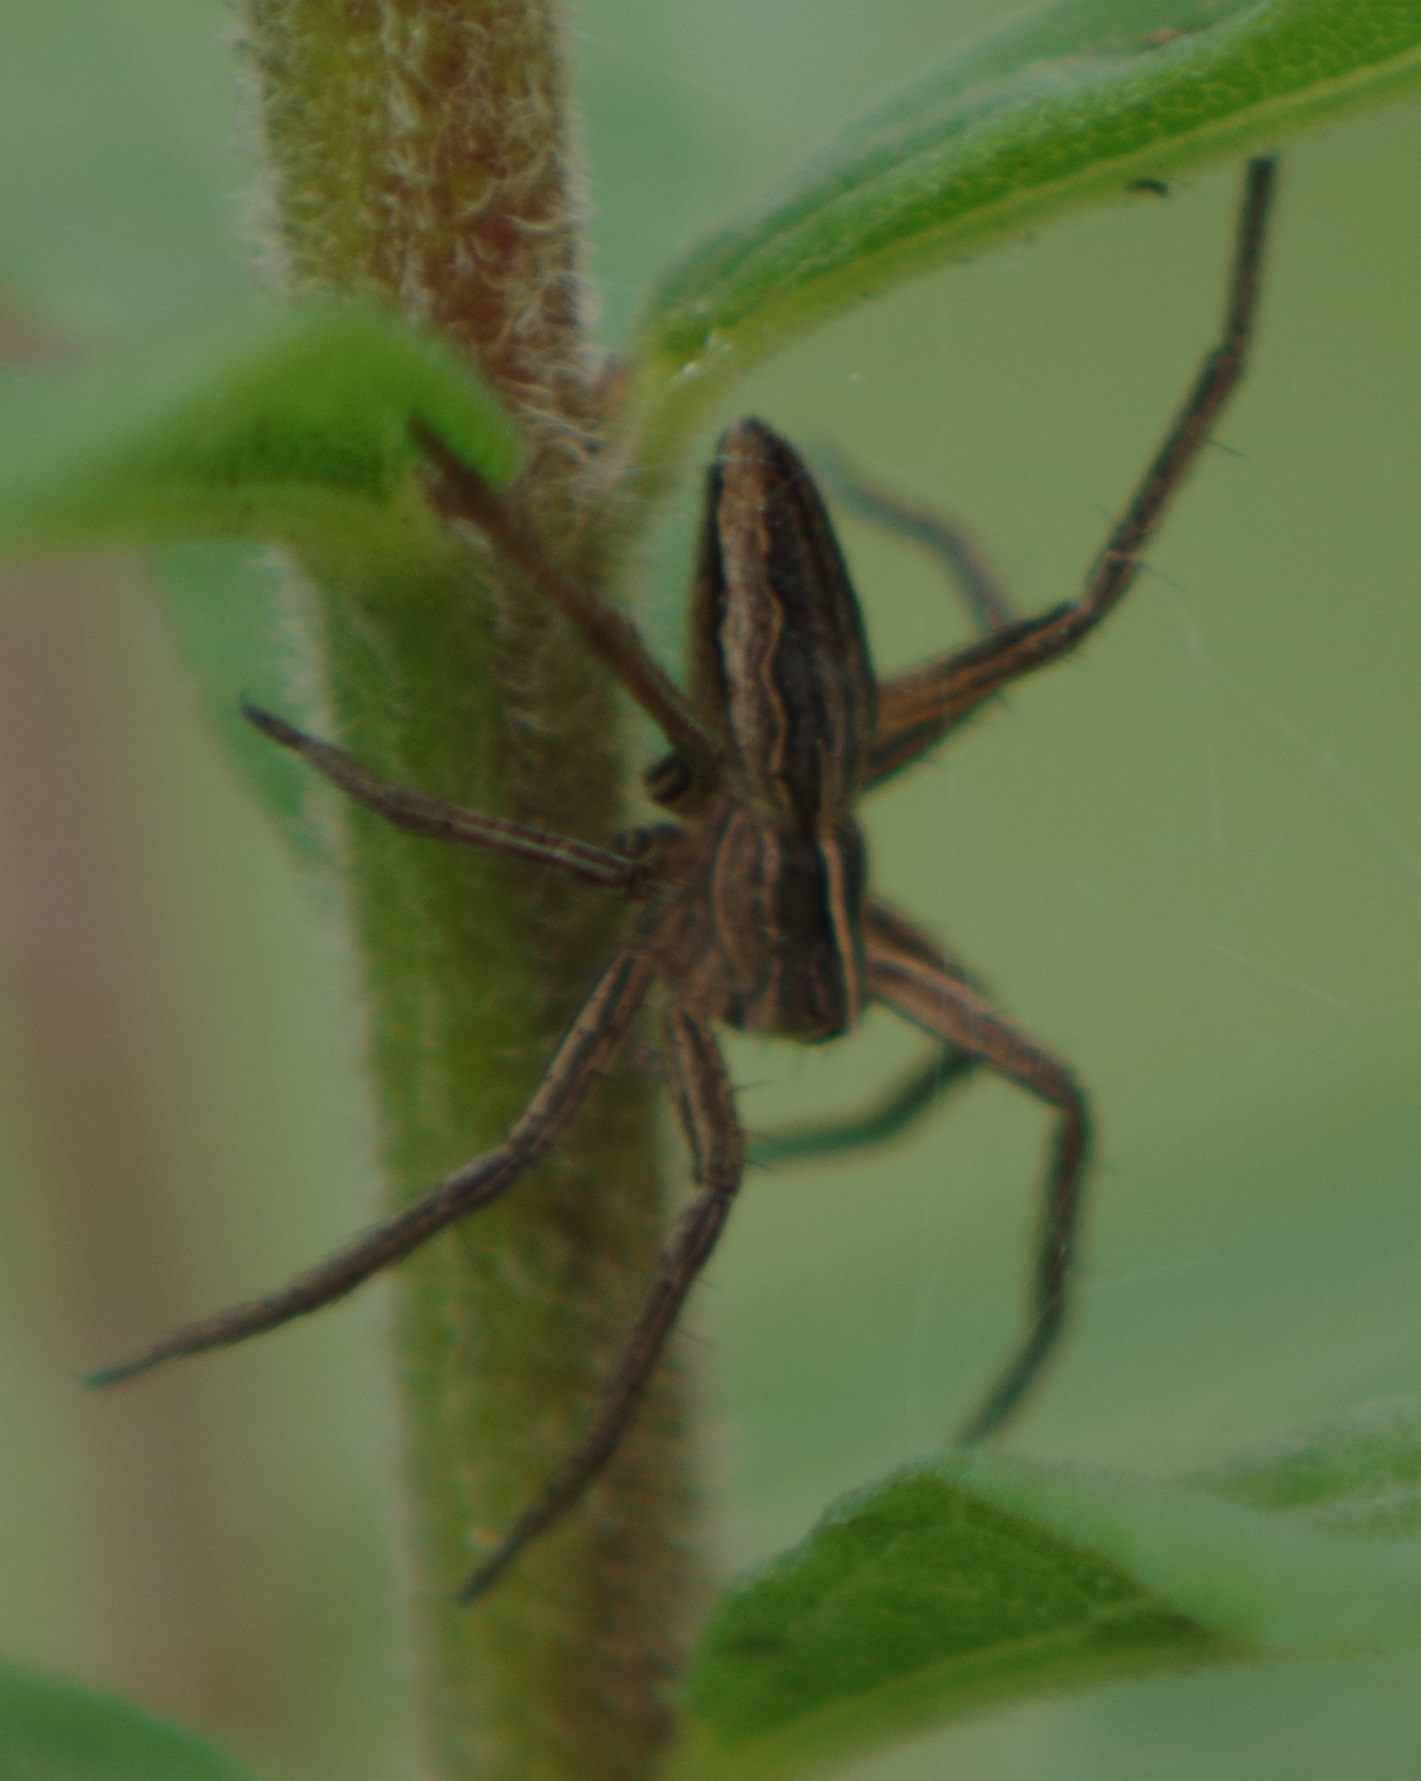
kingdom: Animalia
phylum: Arthropoda
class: Arachnida
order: Araneae
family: Pisauridae
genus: Pisaura
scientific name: Pisaura mirabilis
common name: Tent spider
